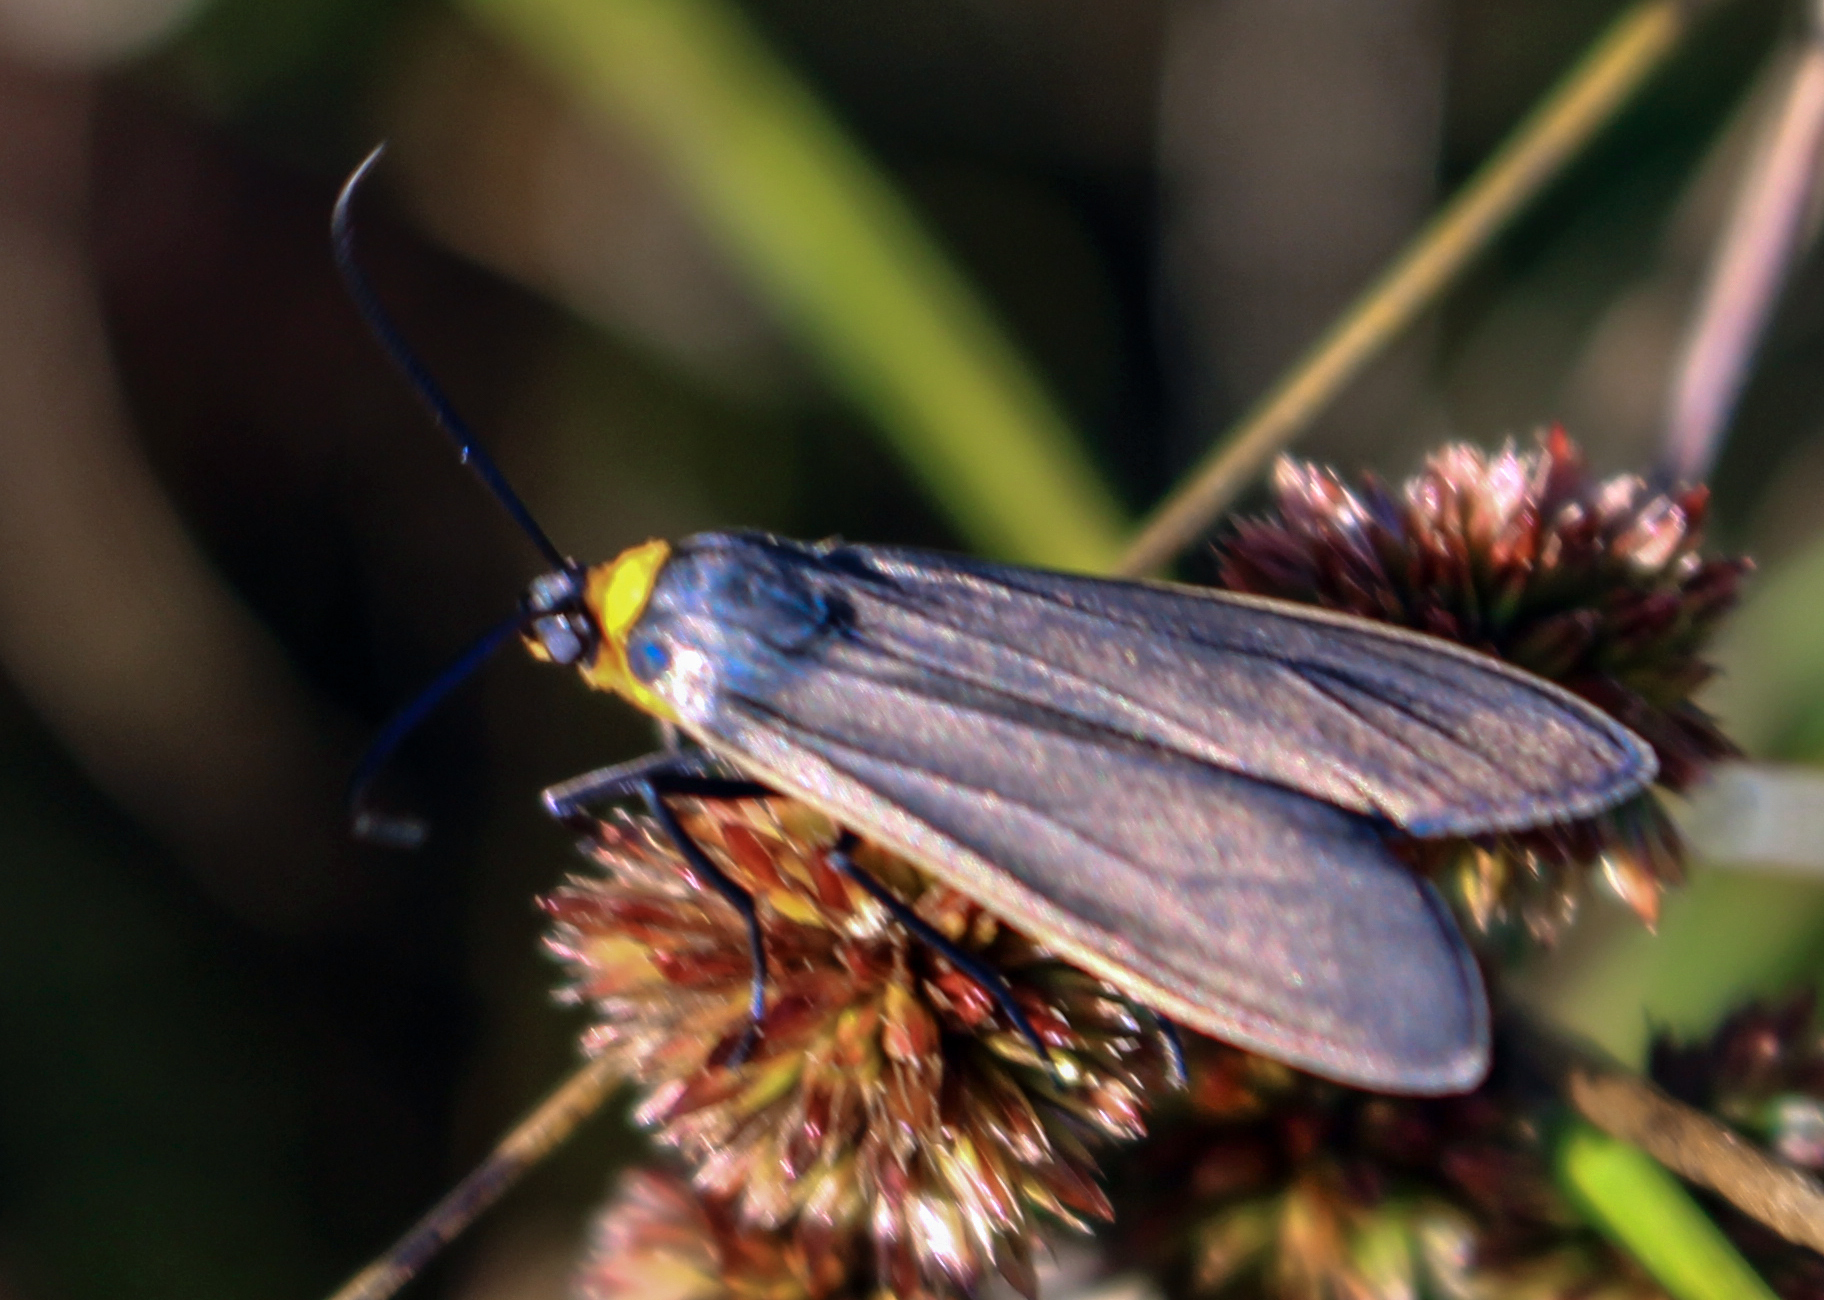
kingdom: Animalia
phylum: Arthropoda
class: Insecta
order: Lepidoptera
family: Erebidae
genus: Cisseps
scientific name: Cisseps fulvicollis
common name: Yellow-collared scape moth
